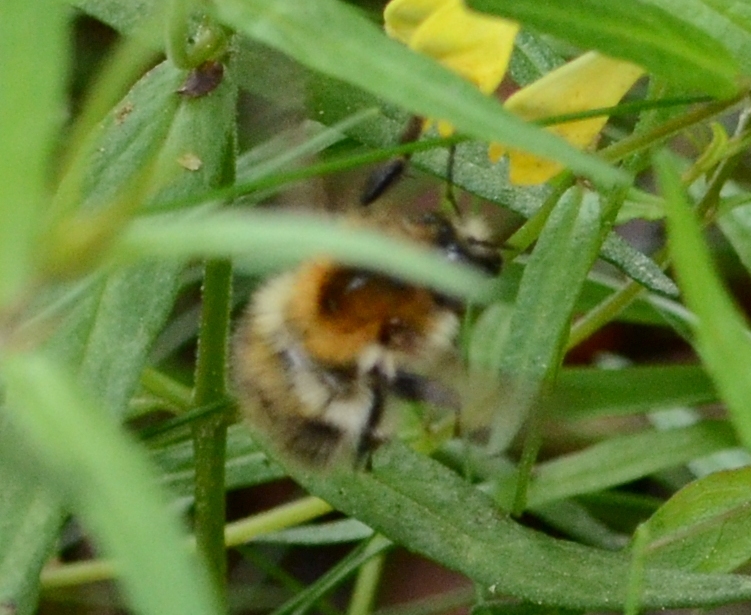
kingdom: Animalia
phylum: Arthropoda
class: Insecta
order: Hymenoptera
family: Apidae
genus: Bombus
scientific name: Bombus pascuorum
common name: Common carder bee
